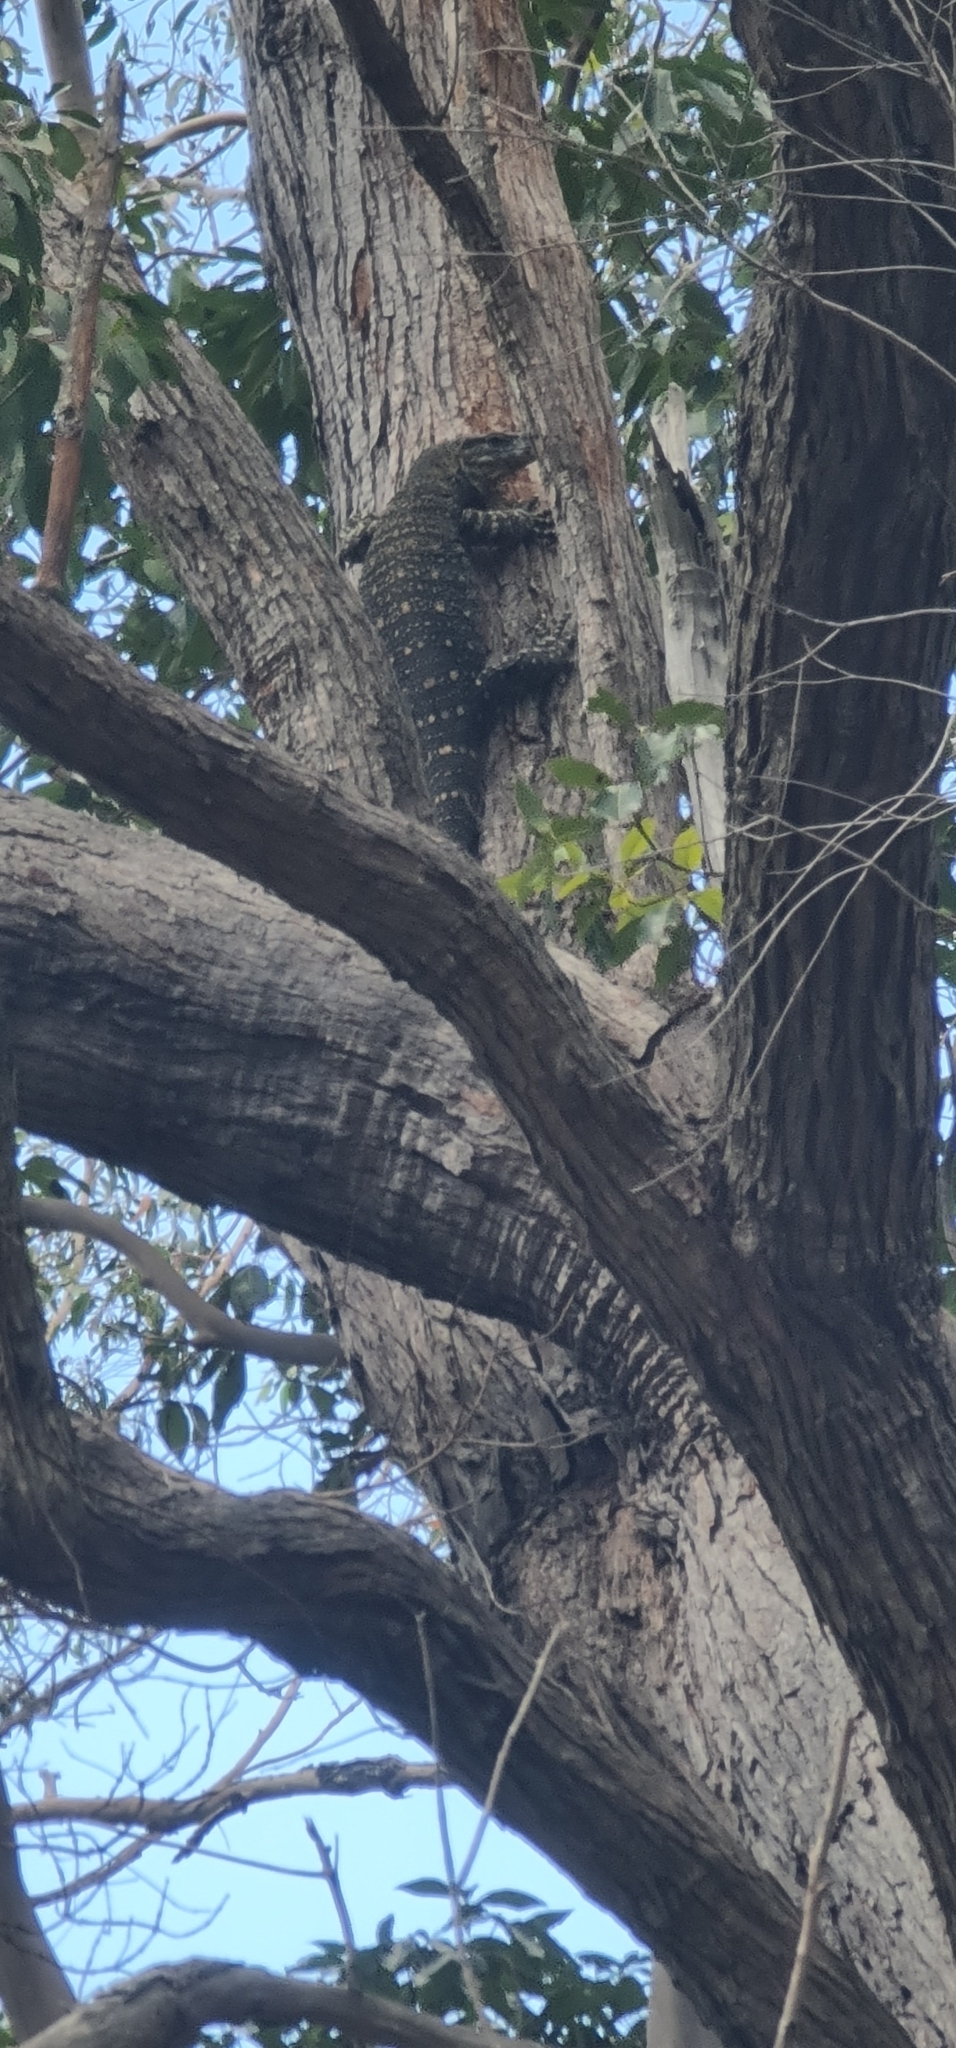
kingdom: Animalia
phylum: Chordata
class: Squamata
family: Varanidae
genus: Varanus
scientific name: Varanus varius
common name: Lace monitor
